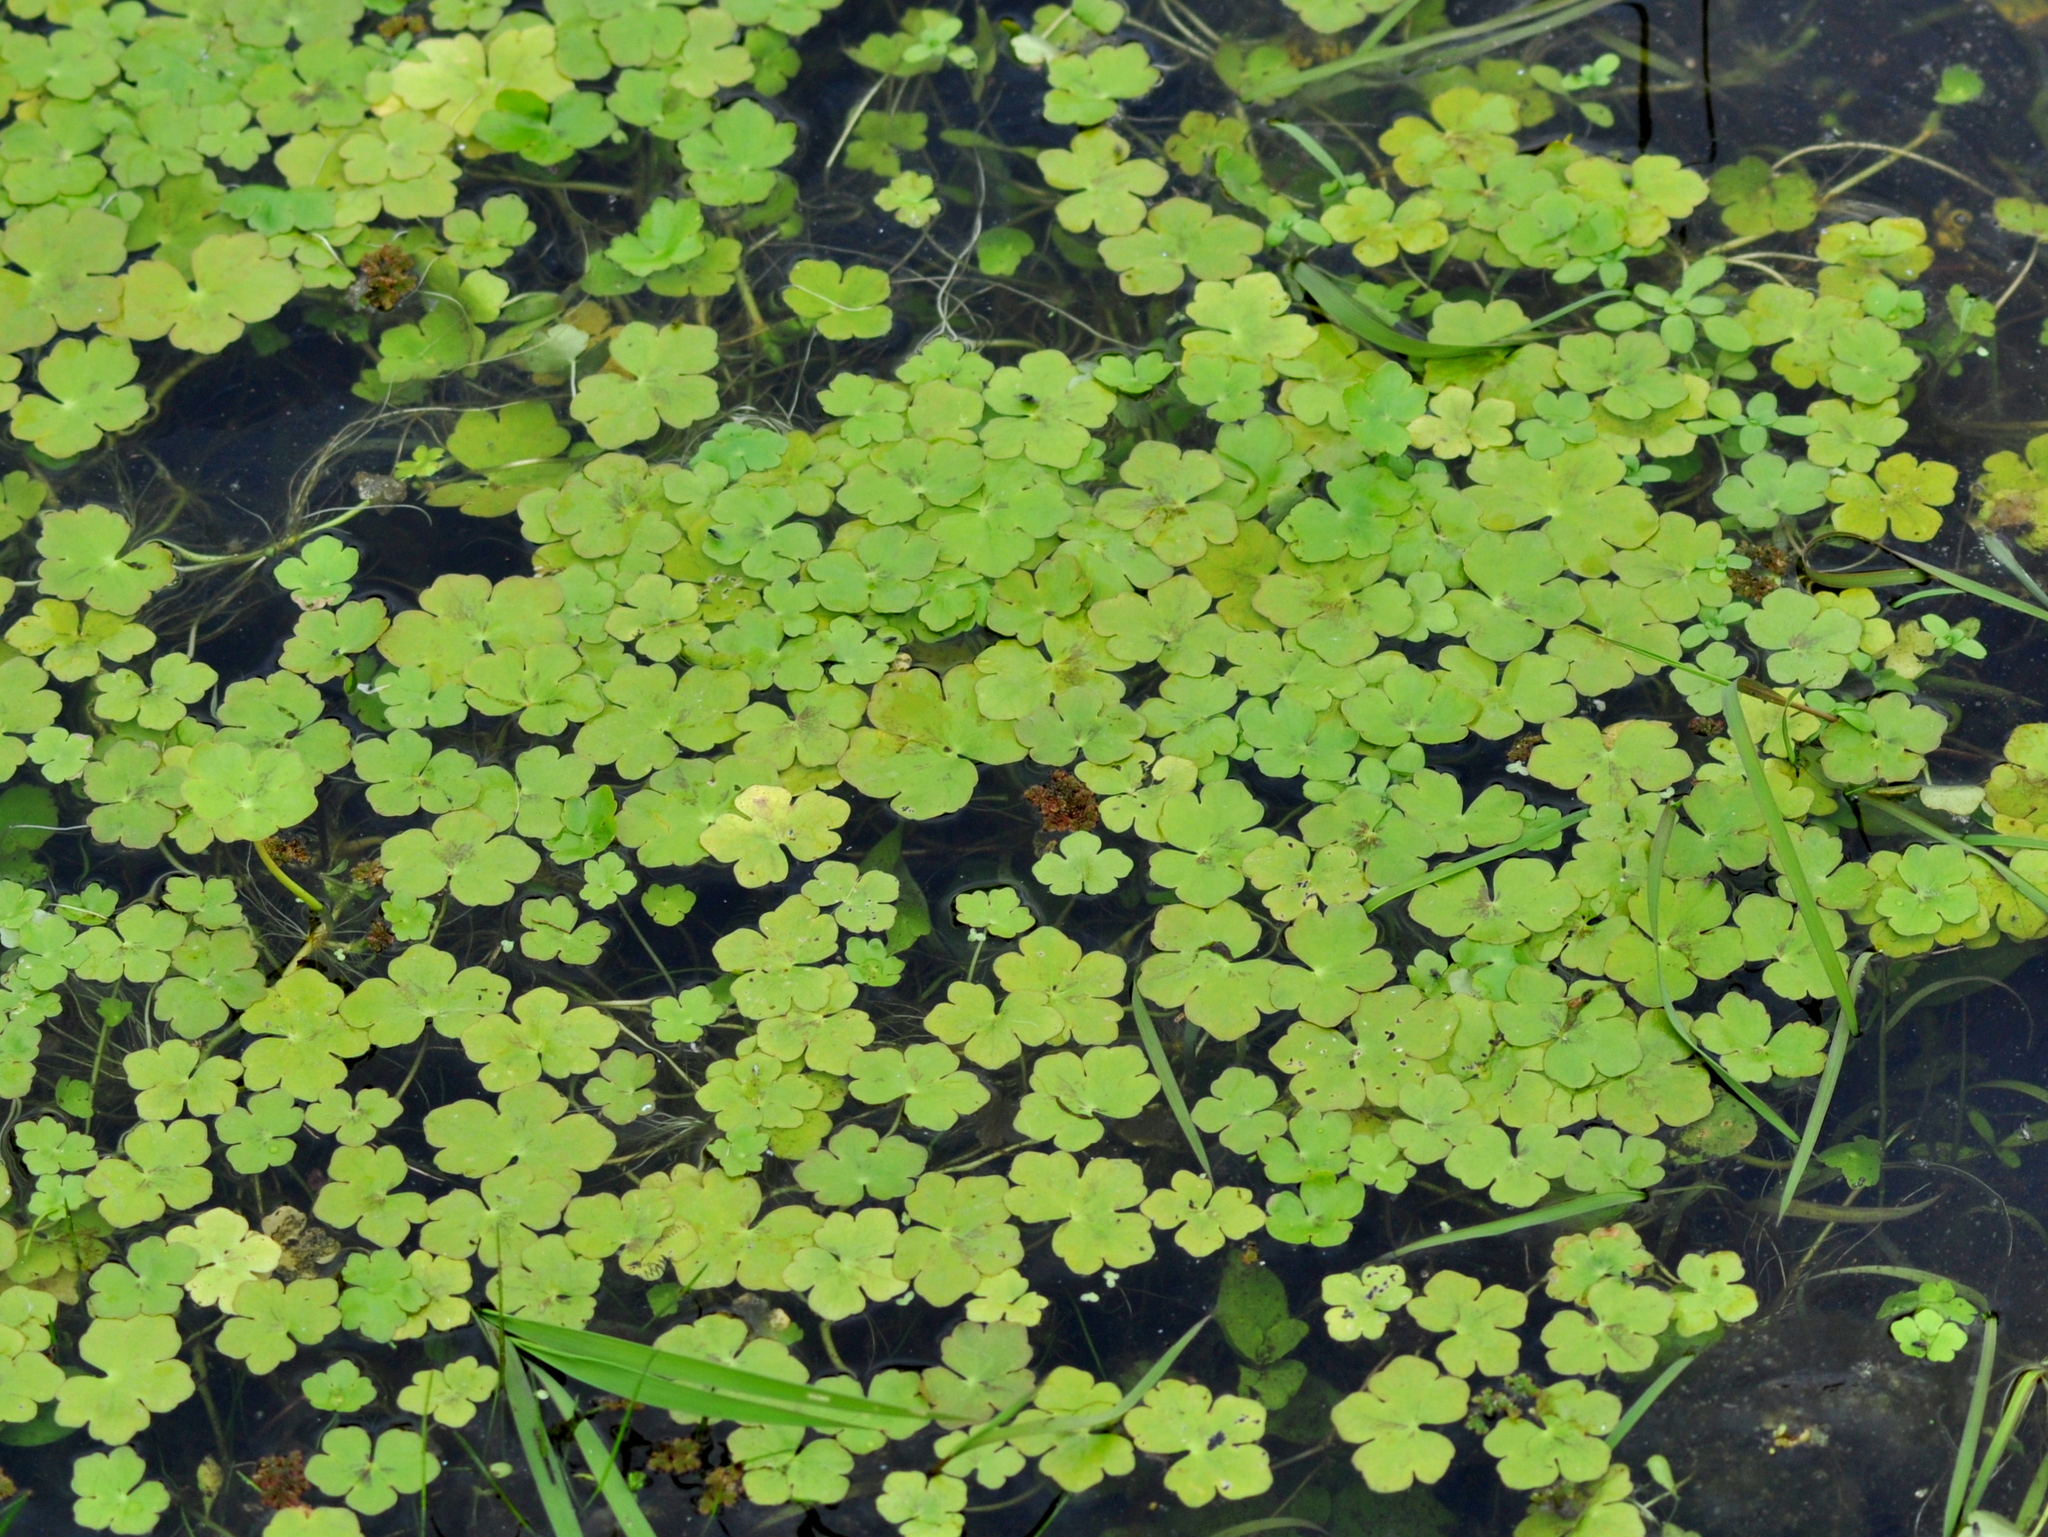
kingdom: Plantae
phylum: Tracheophyta
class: Magnoliopsida
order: Apiales
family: Araliaceae
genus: Hydrocotyle
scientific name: Hydrocotyle ranunculoides
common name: Floating pennywort
